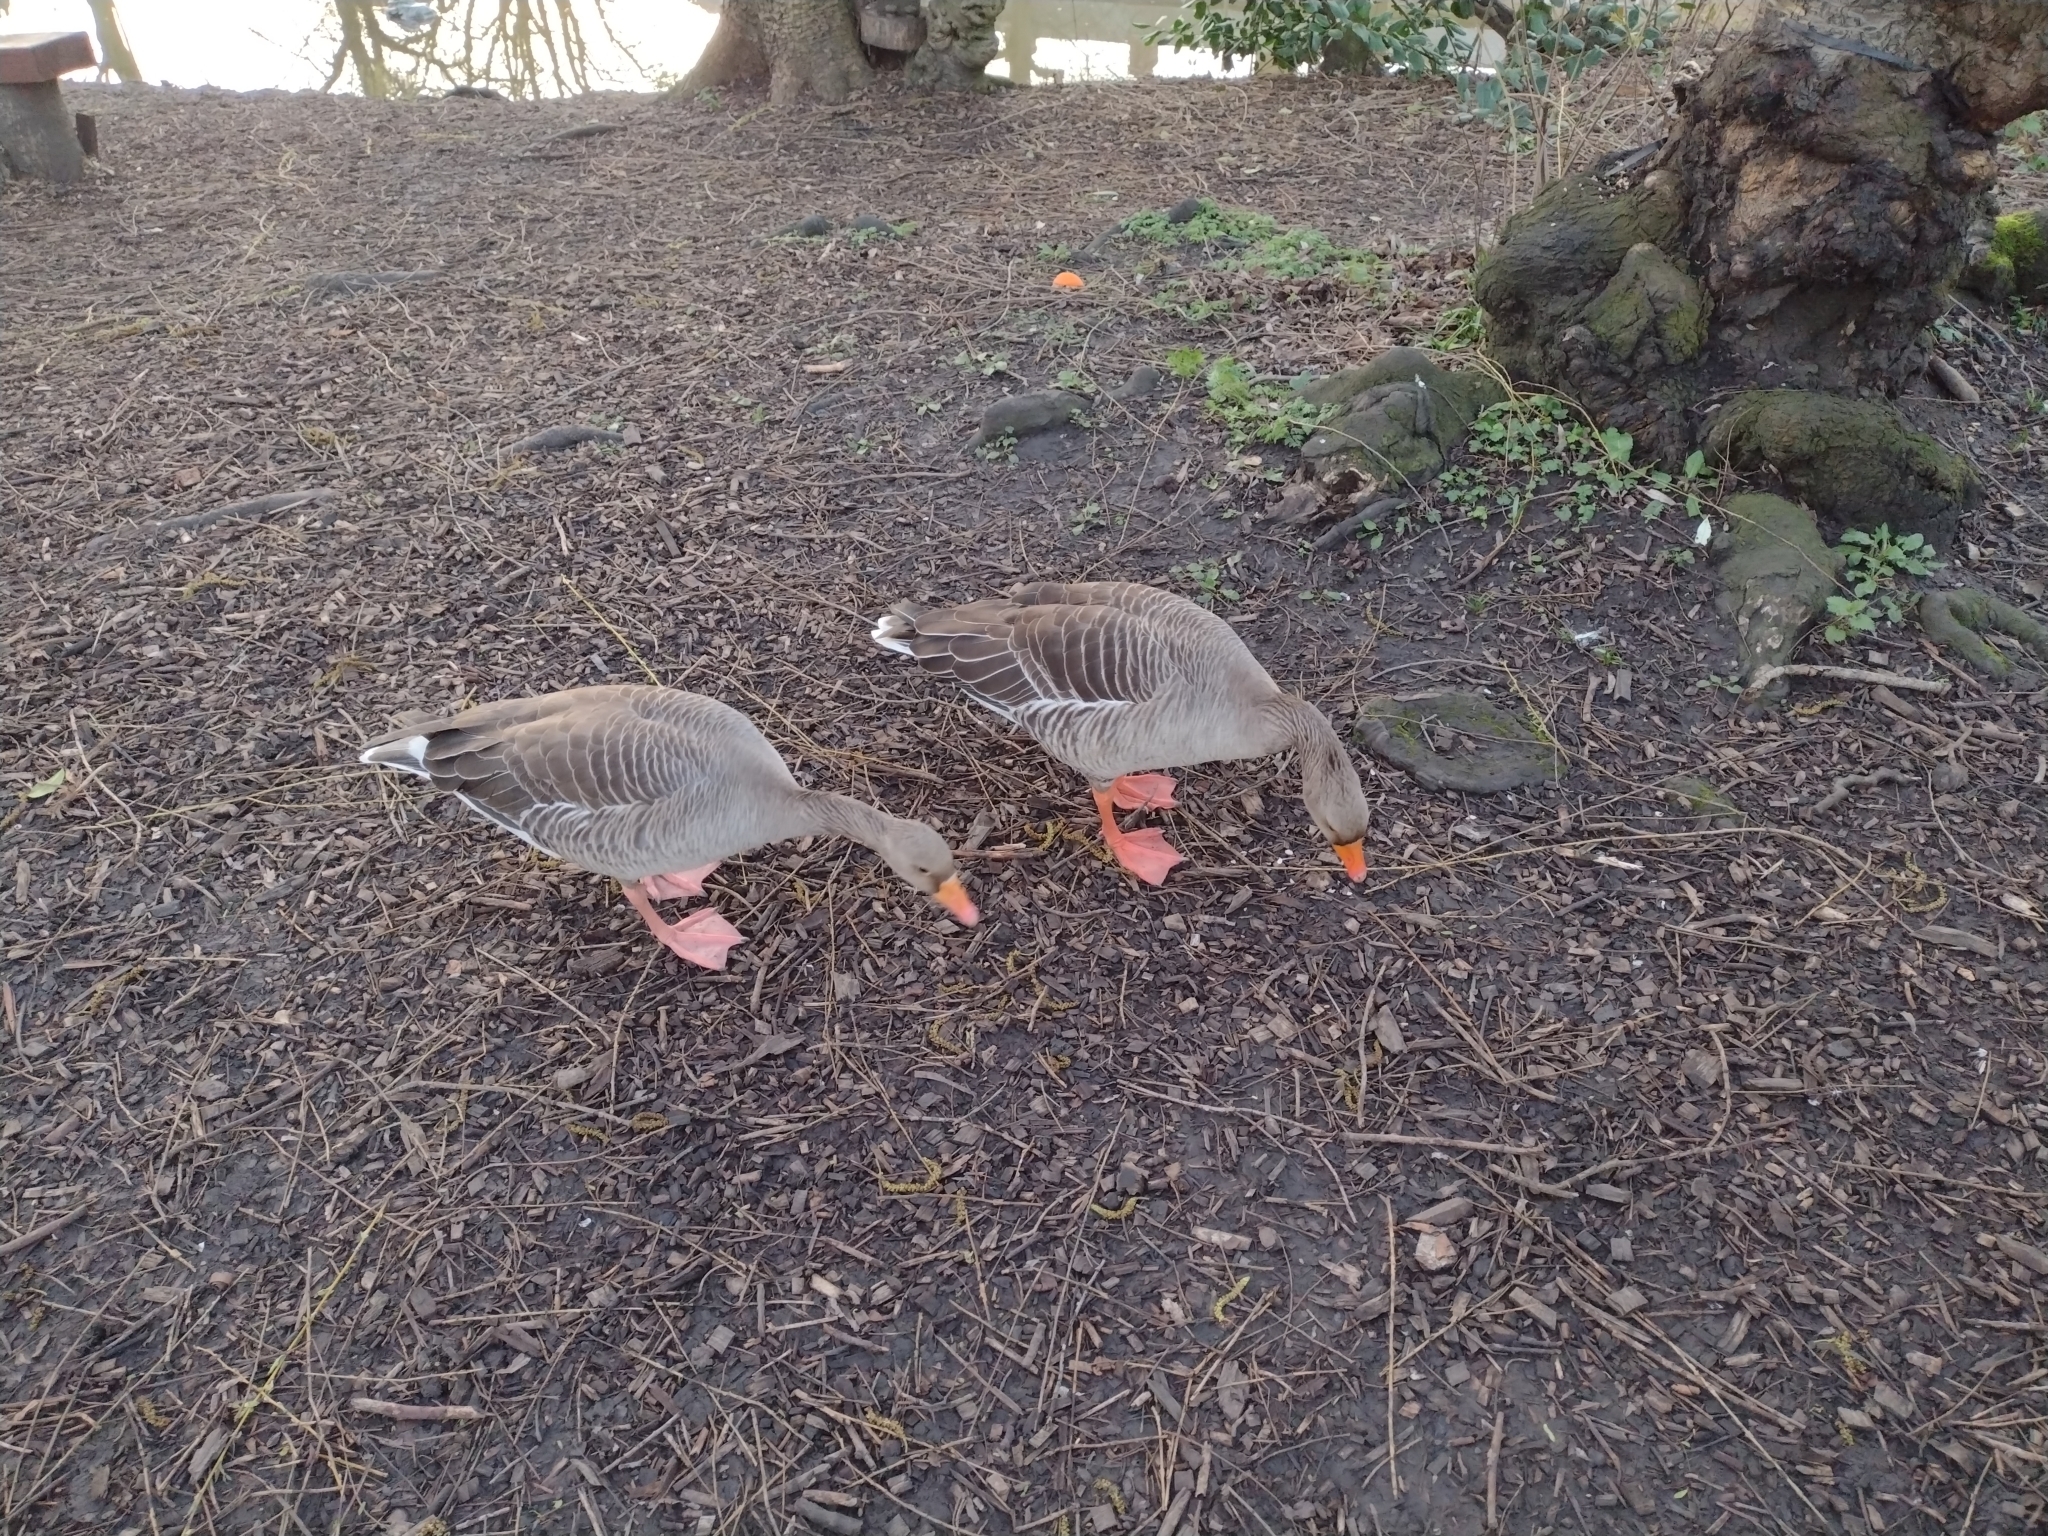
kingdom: Animalia
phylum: Chordata
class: Aves
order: Anseriformes
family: Anatidae
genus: Anser
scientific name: Anser anser
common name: Greylag goose
